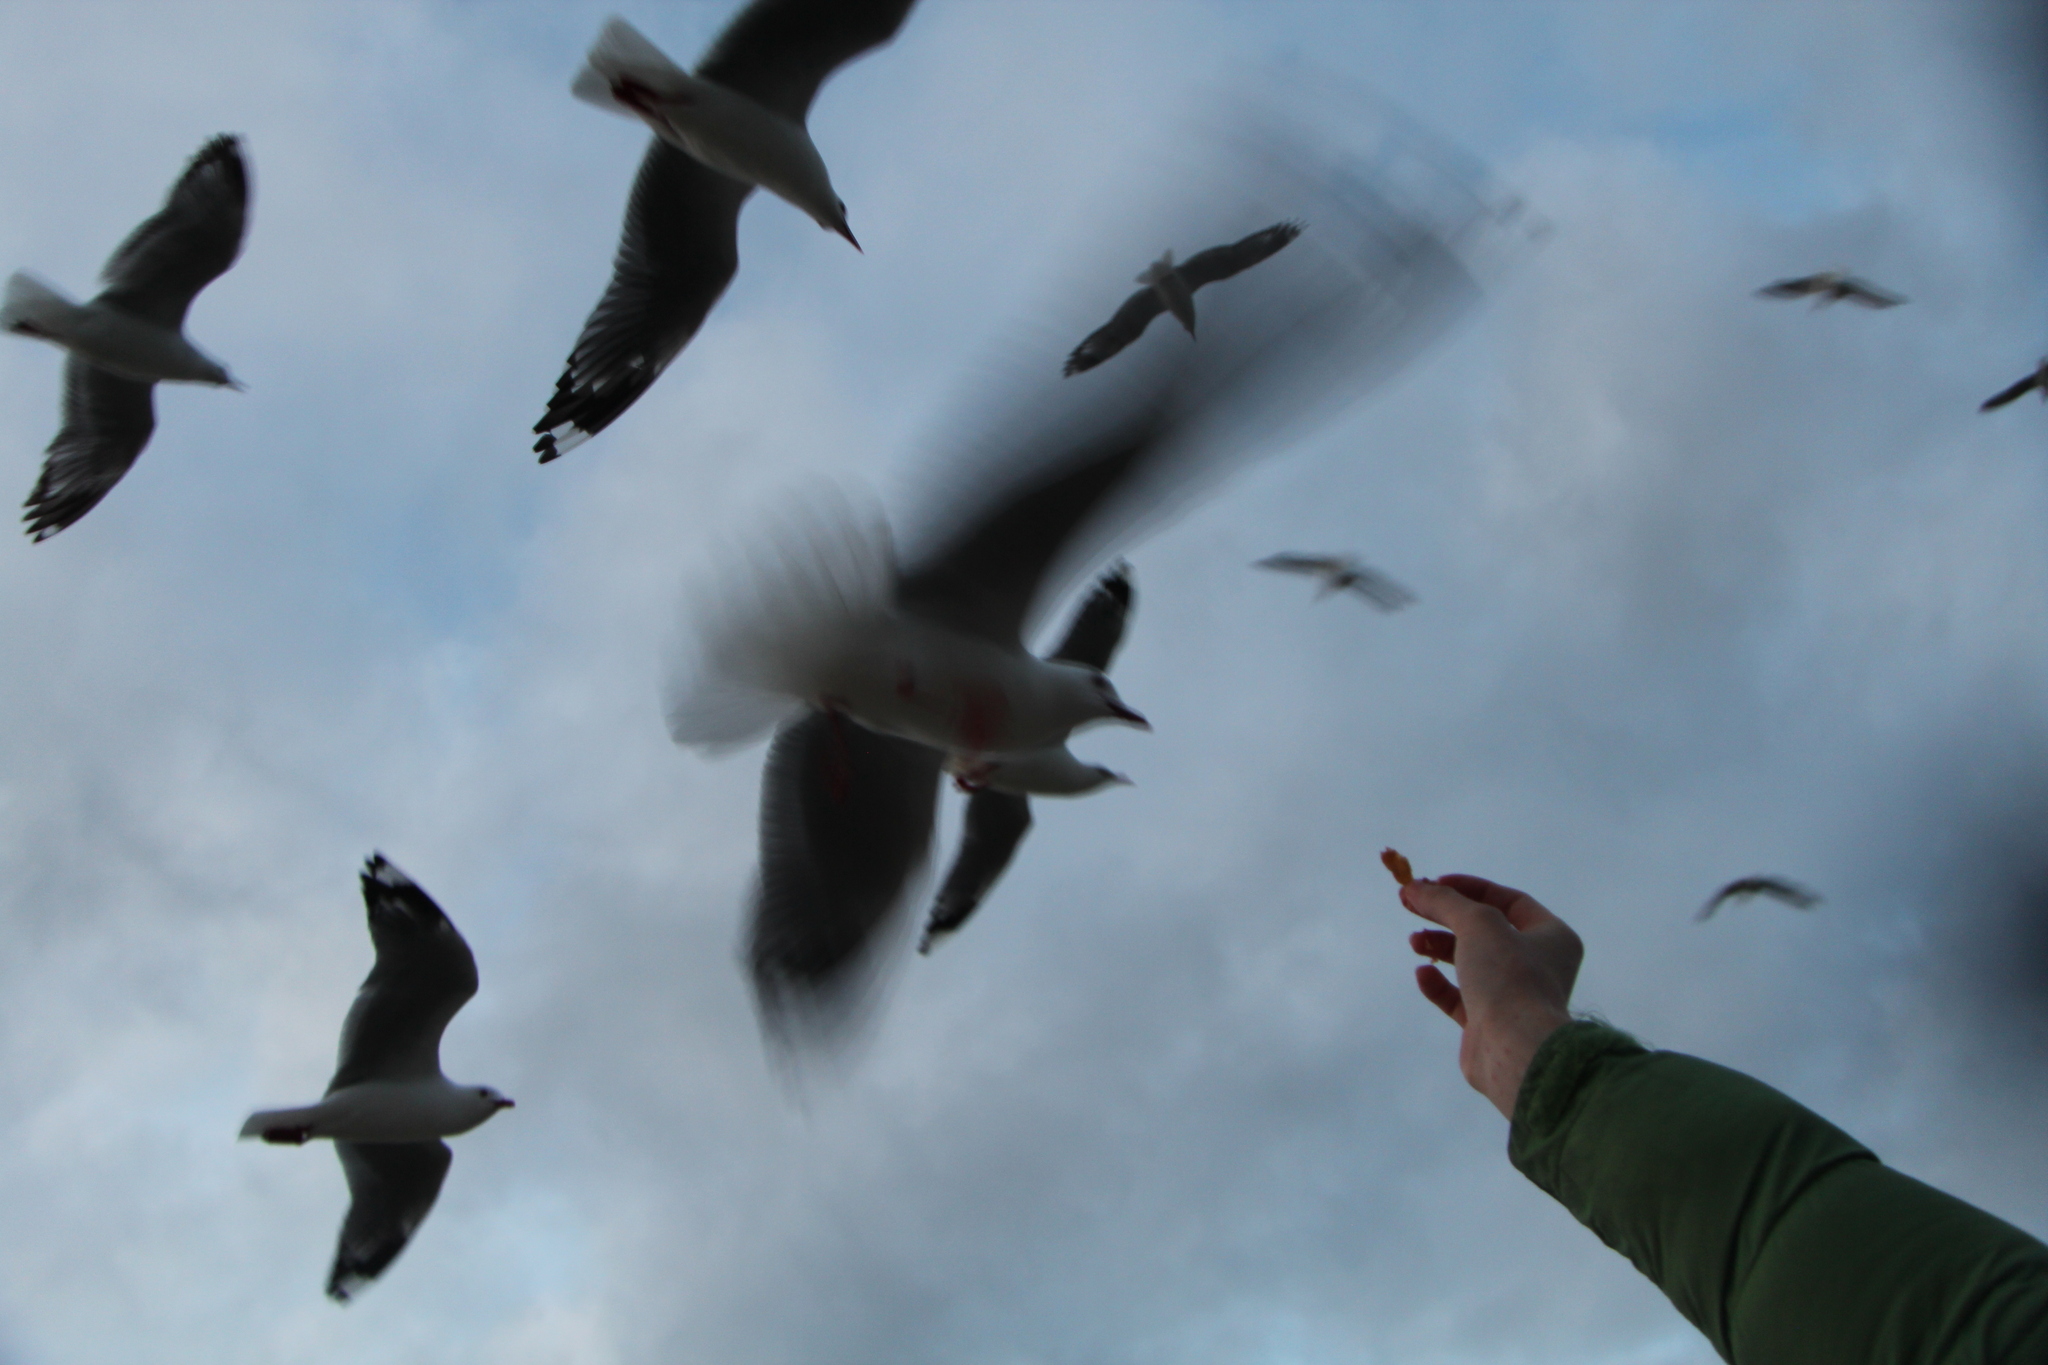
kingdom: Animalia
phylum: Chordata
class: Aves
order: Charadriiformes
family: Laridae
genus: Chroicocephalus
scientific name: Chroicocephalus novaehollandiae
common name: Silver gull
